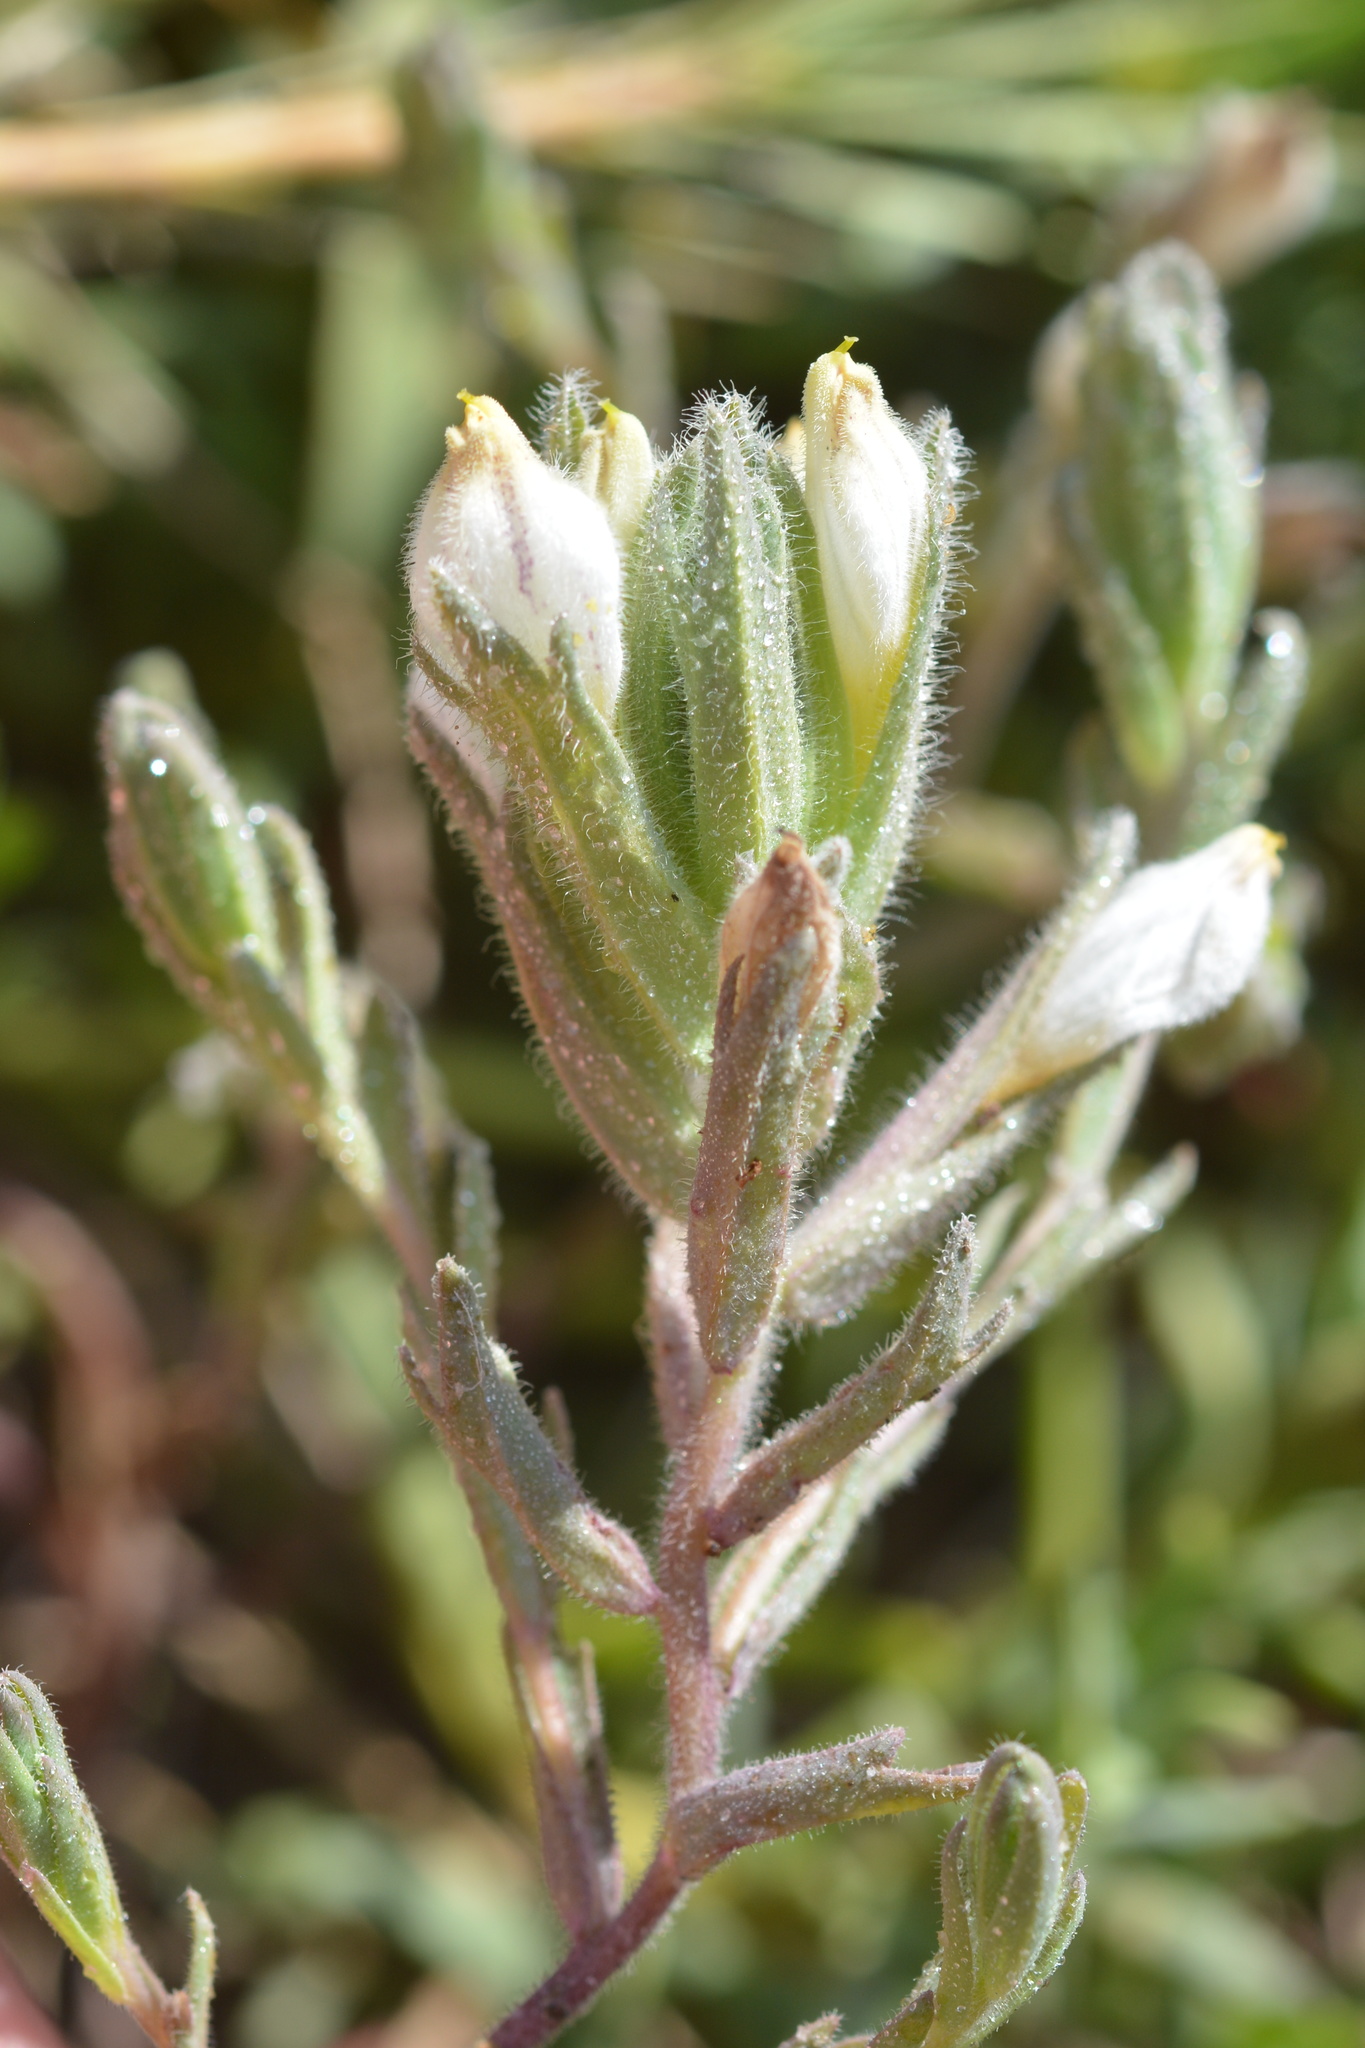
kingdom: Plantae
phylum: Tracheophyta
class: Magnoliopsida
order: Lamiales
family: Orobanchaceae
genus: Chloropyron
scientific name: Chloropyron maritimum
